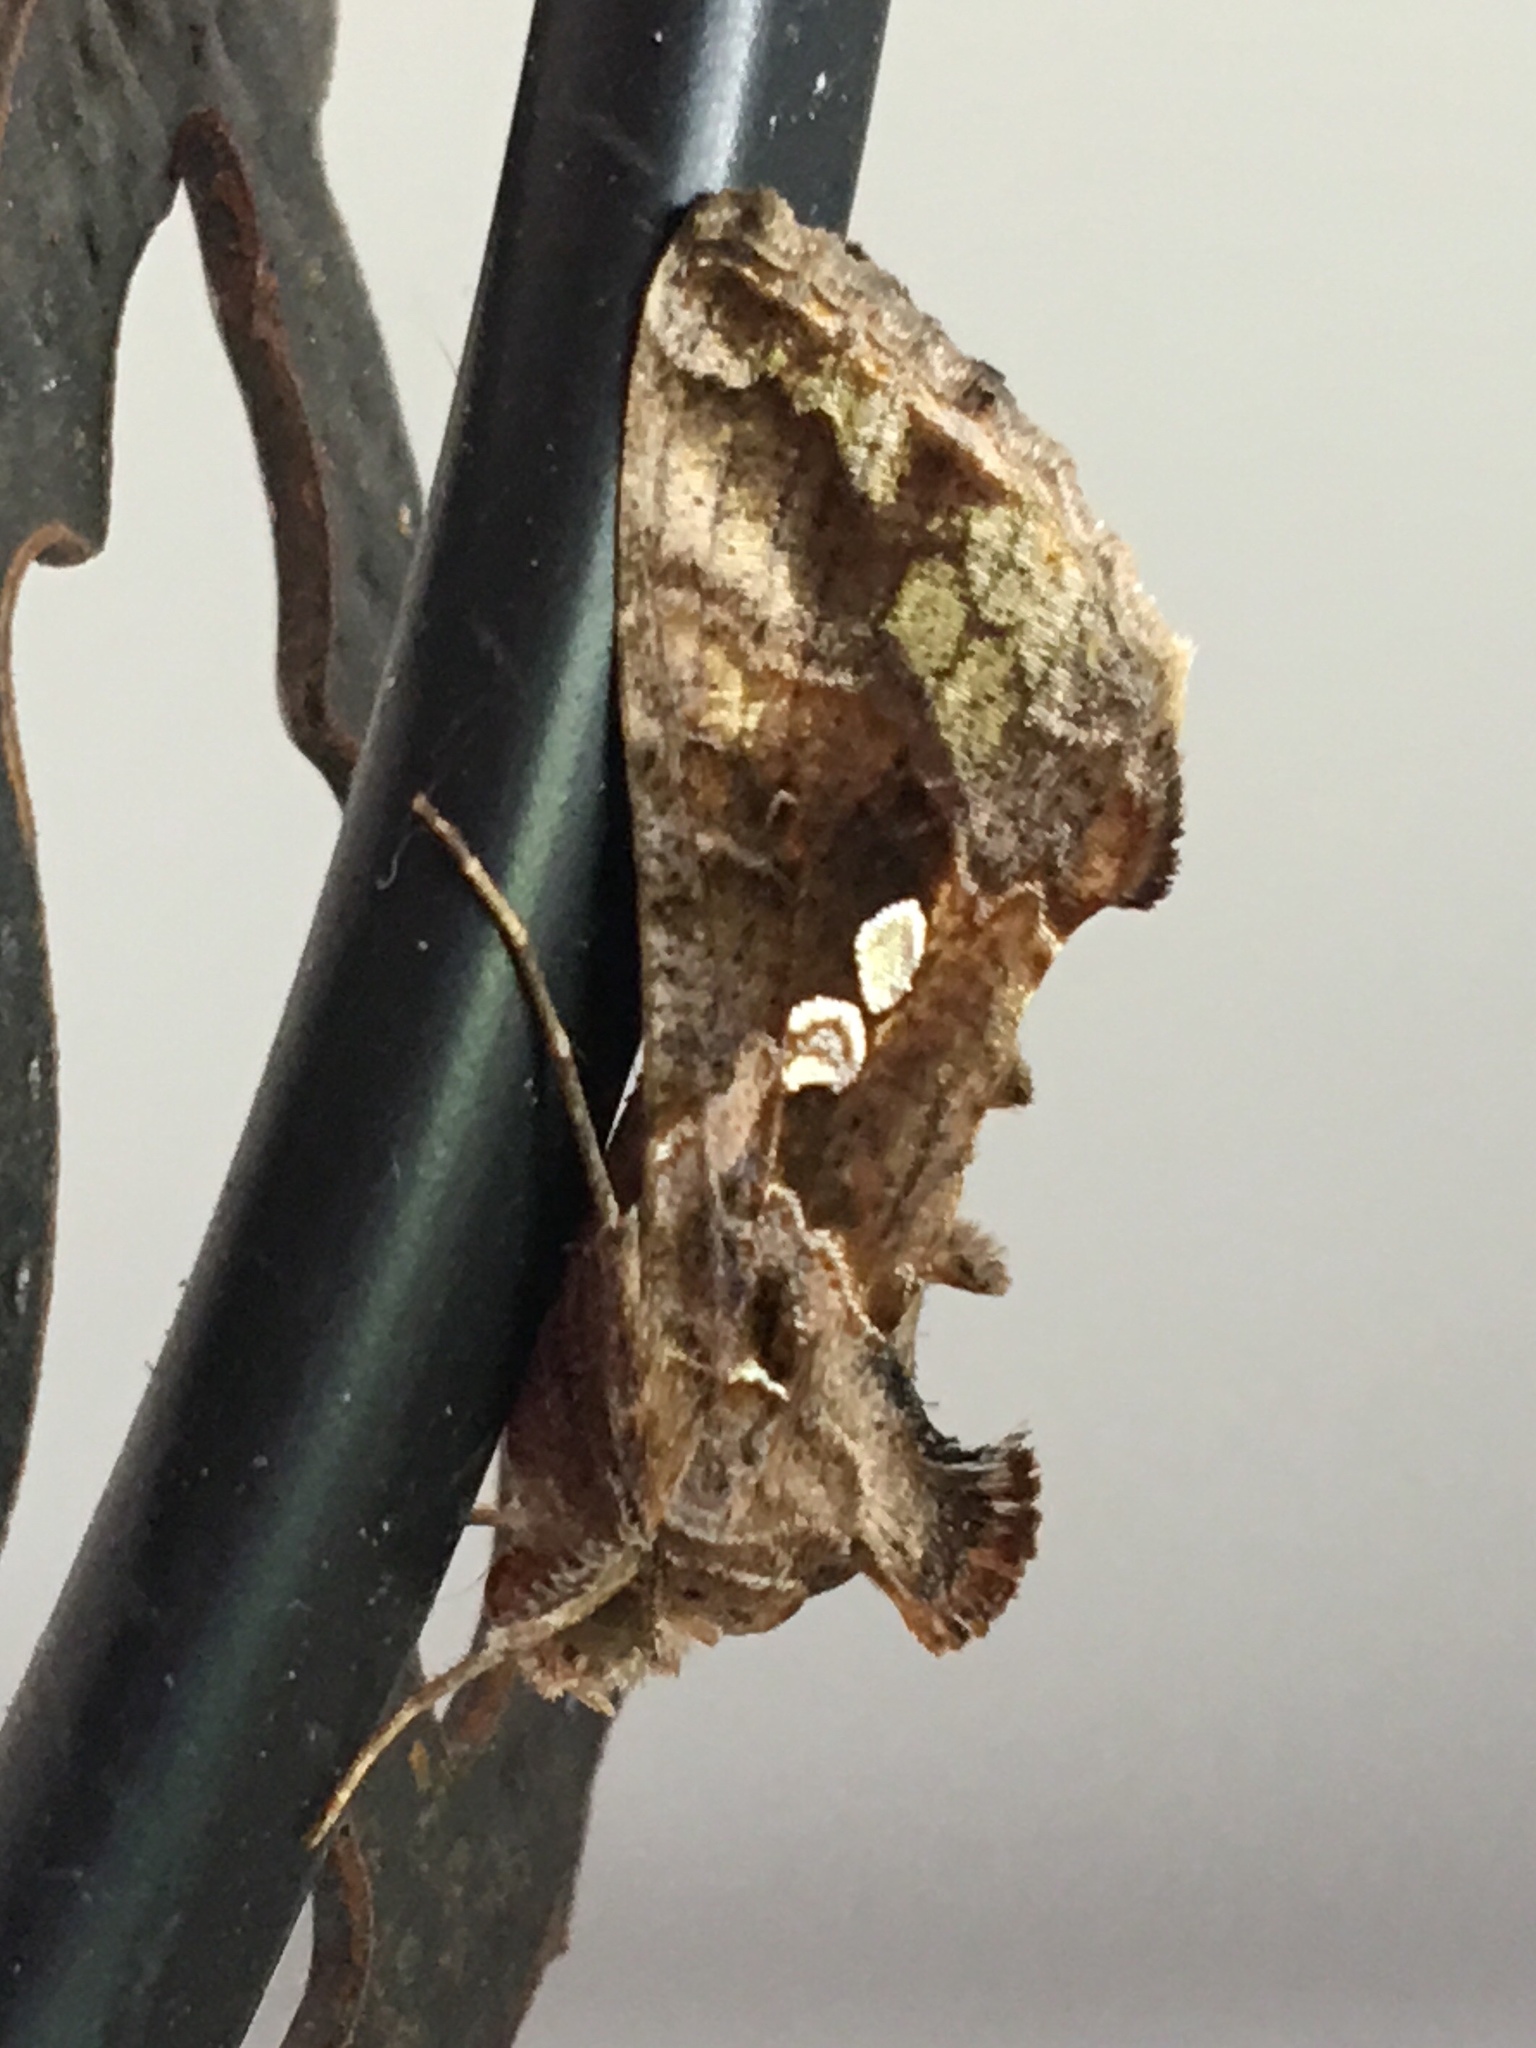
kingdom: Animalia
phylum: Arthropoda
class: Insecta
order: Lepidoptera
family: Noctuidae
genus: Chrysodeixis
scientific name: Chrysodeixis includens
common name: Cutworm moth
